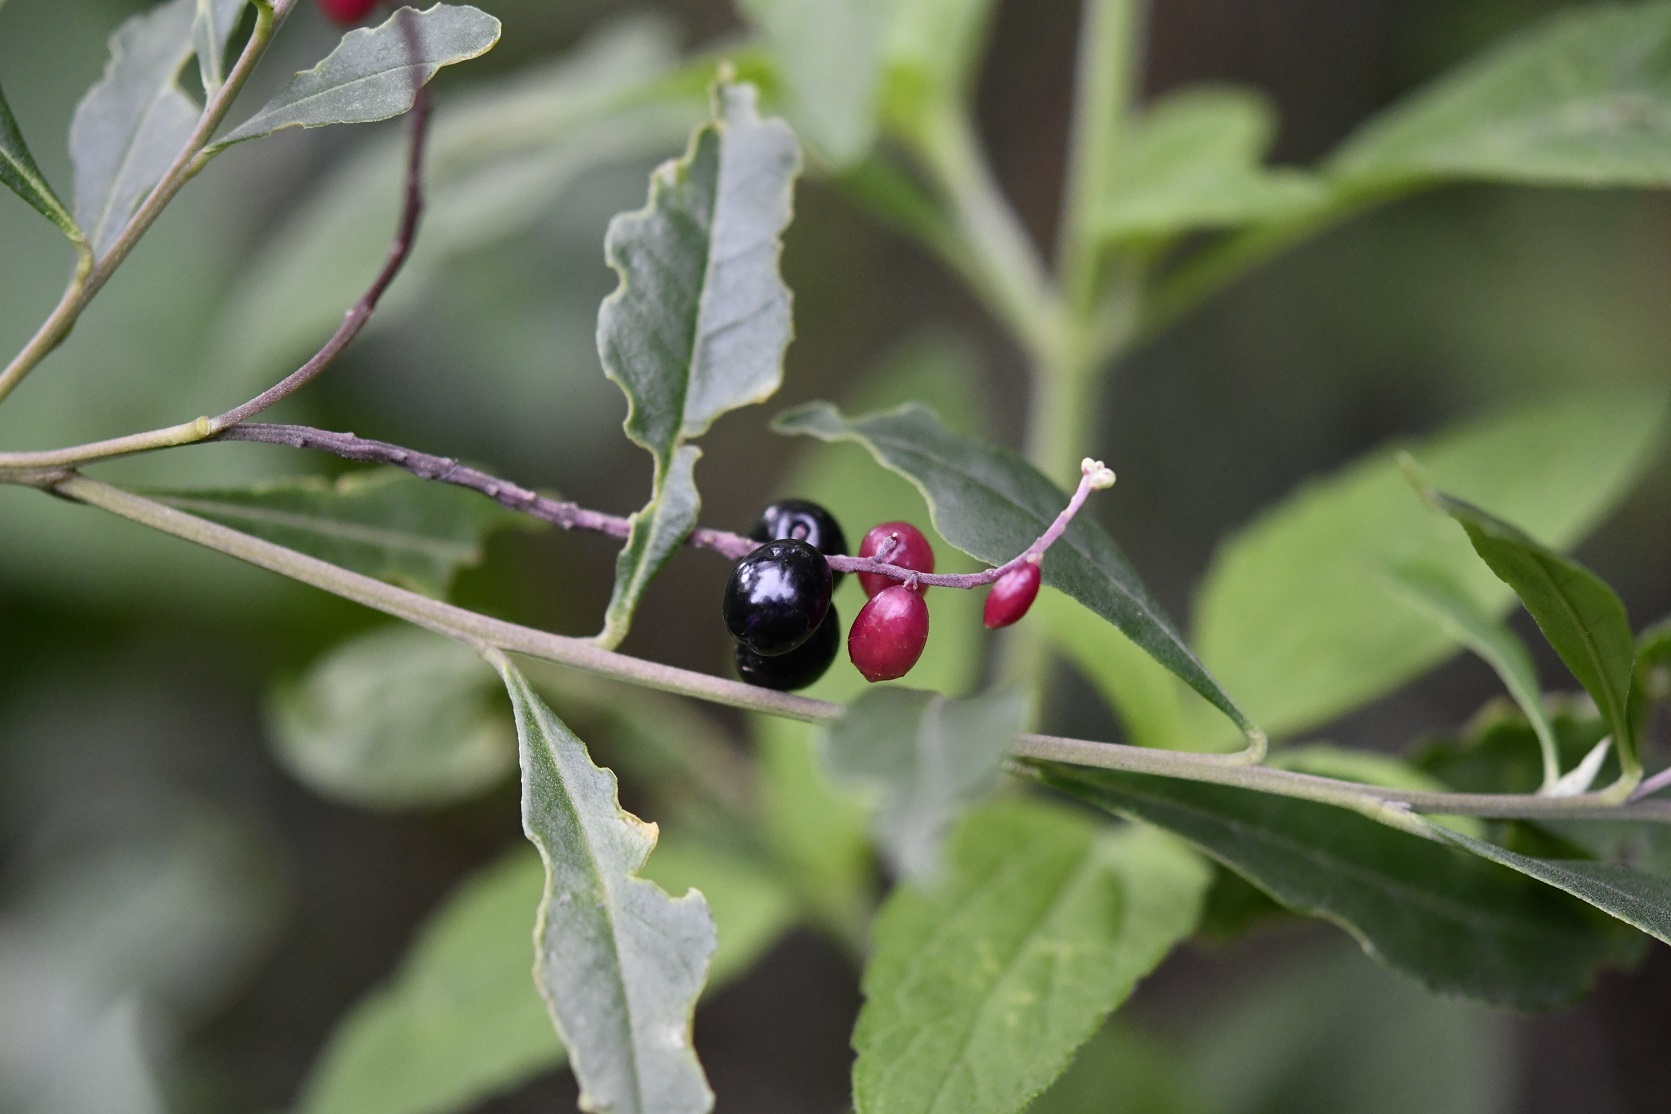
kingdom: Plantae
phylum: Tracheophyta
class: Magnoliopsida
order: Fabales
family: Polygalaceae
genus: Monnina
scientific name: Monnina xalapensis
